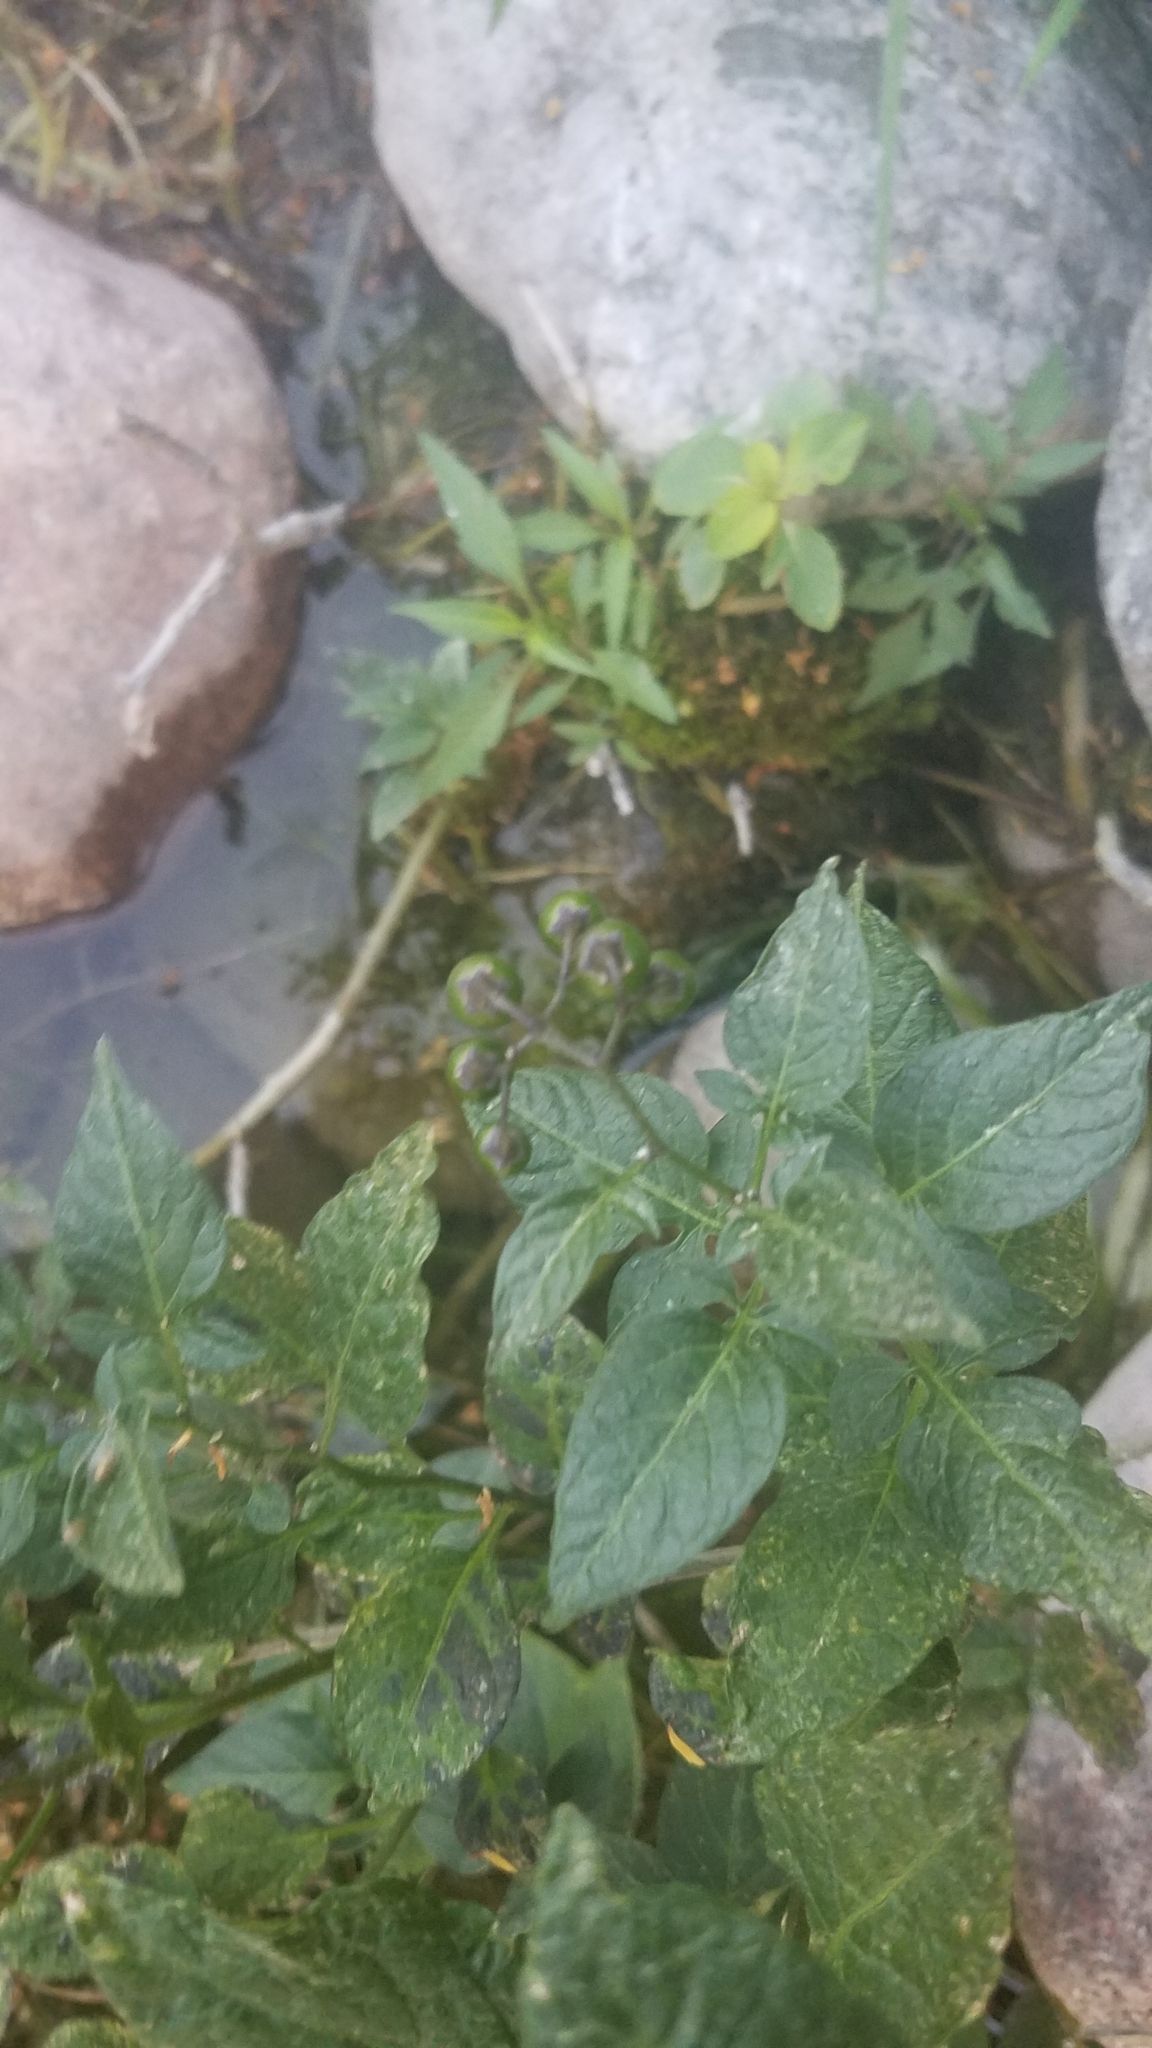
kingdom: Plantae
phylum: Tracheophyta
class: Magnoliopsida
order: Solanales
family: Solanaceae
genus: Solanum
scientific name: Solanum dulcamara
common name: Climbing nightshade
